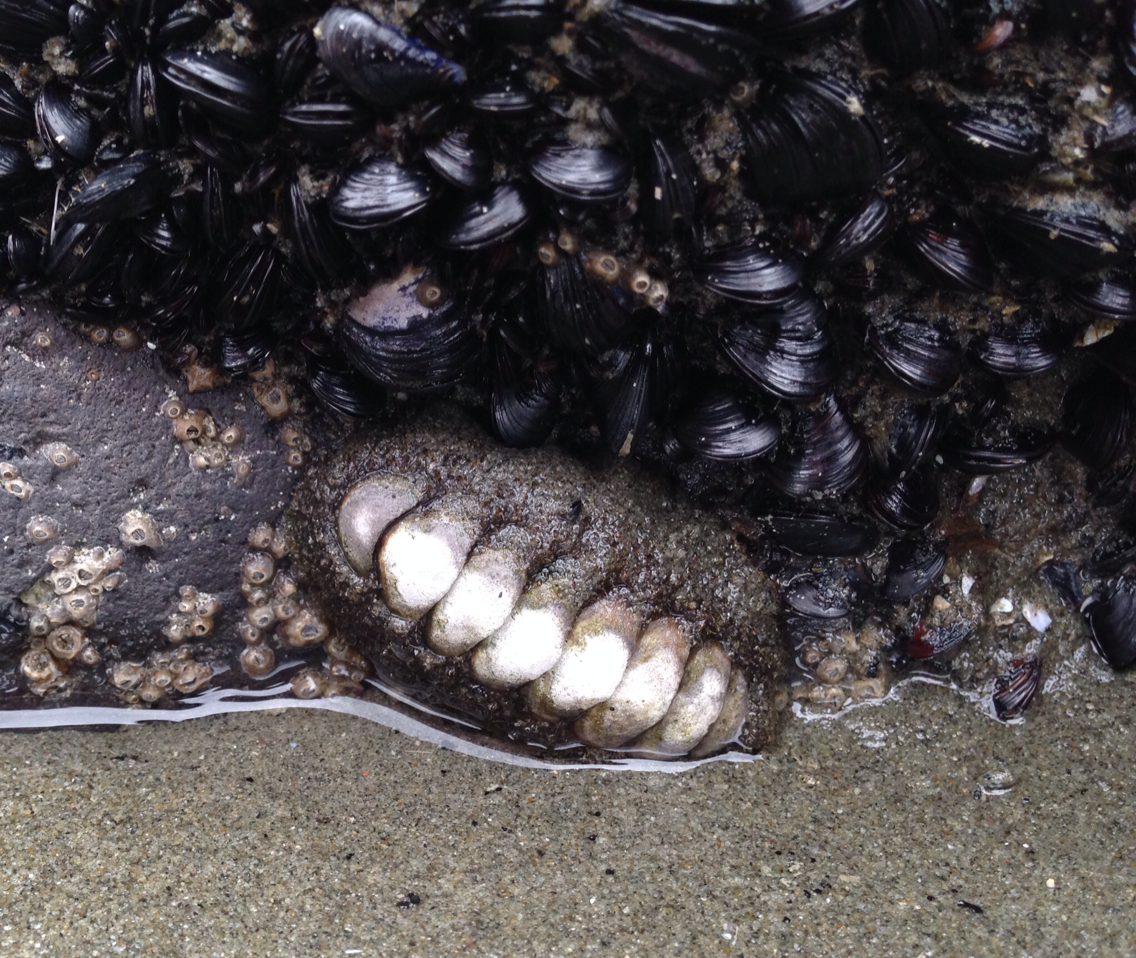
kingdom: Animalia
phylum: Mollusca
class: Polyplacophora
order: Chitonida
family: Mopaliidae
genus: Plaxiphora
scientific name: Plaxiphora obtecta
